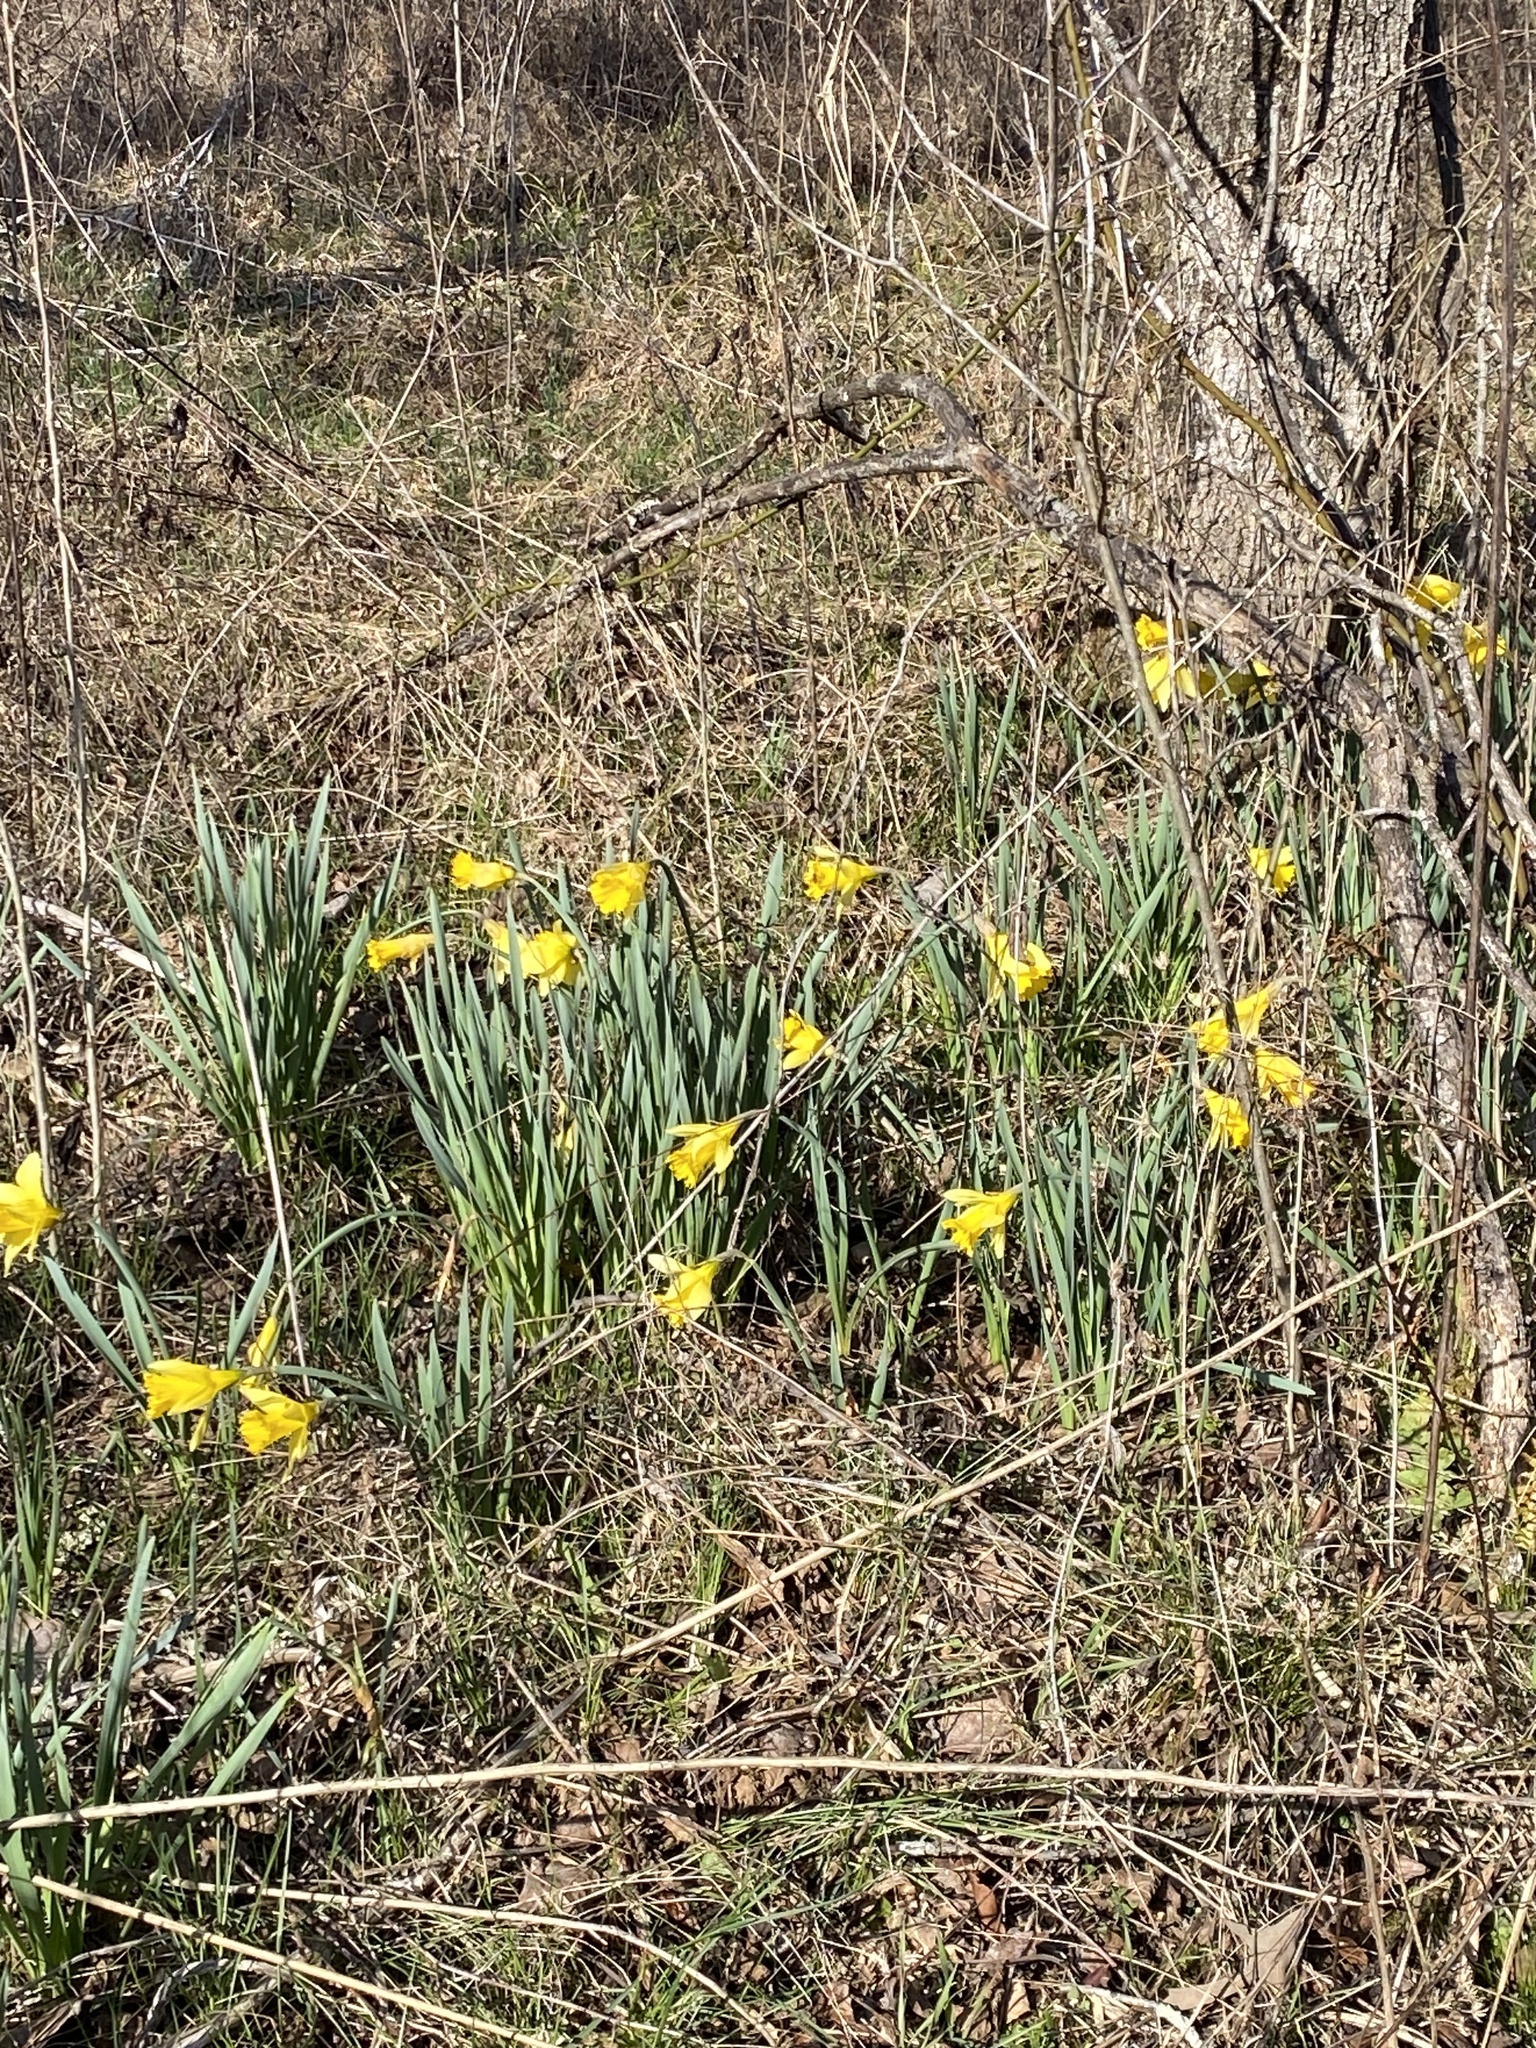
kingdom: Plantae
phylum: Tracheophyta
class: Liliopsida
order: Asparagales
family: Amaryllidaceae
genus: Narcissus
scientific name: Narcissus pseudonarcissus
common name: Daffodil
